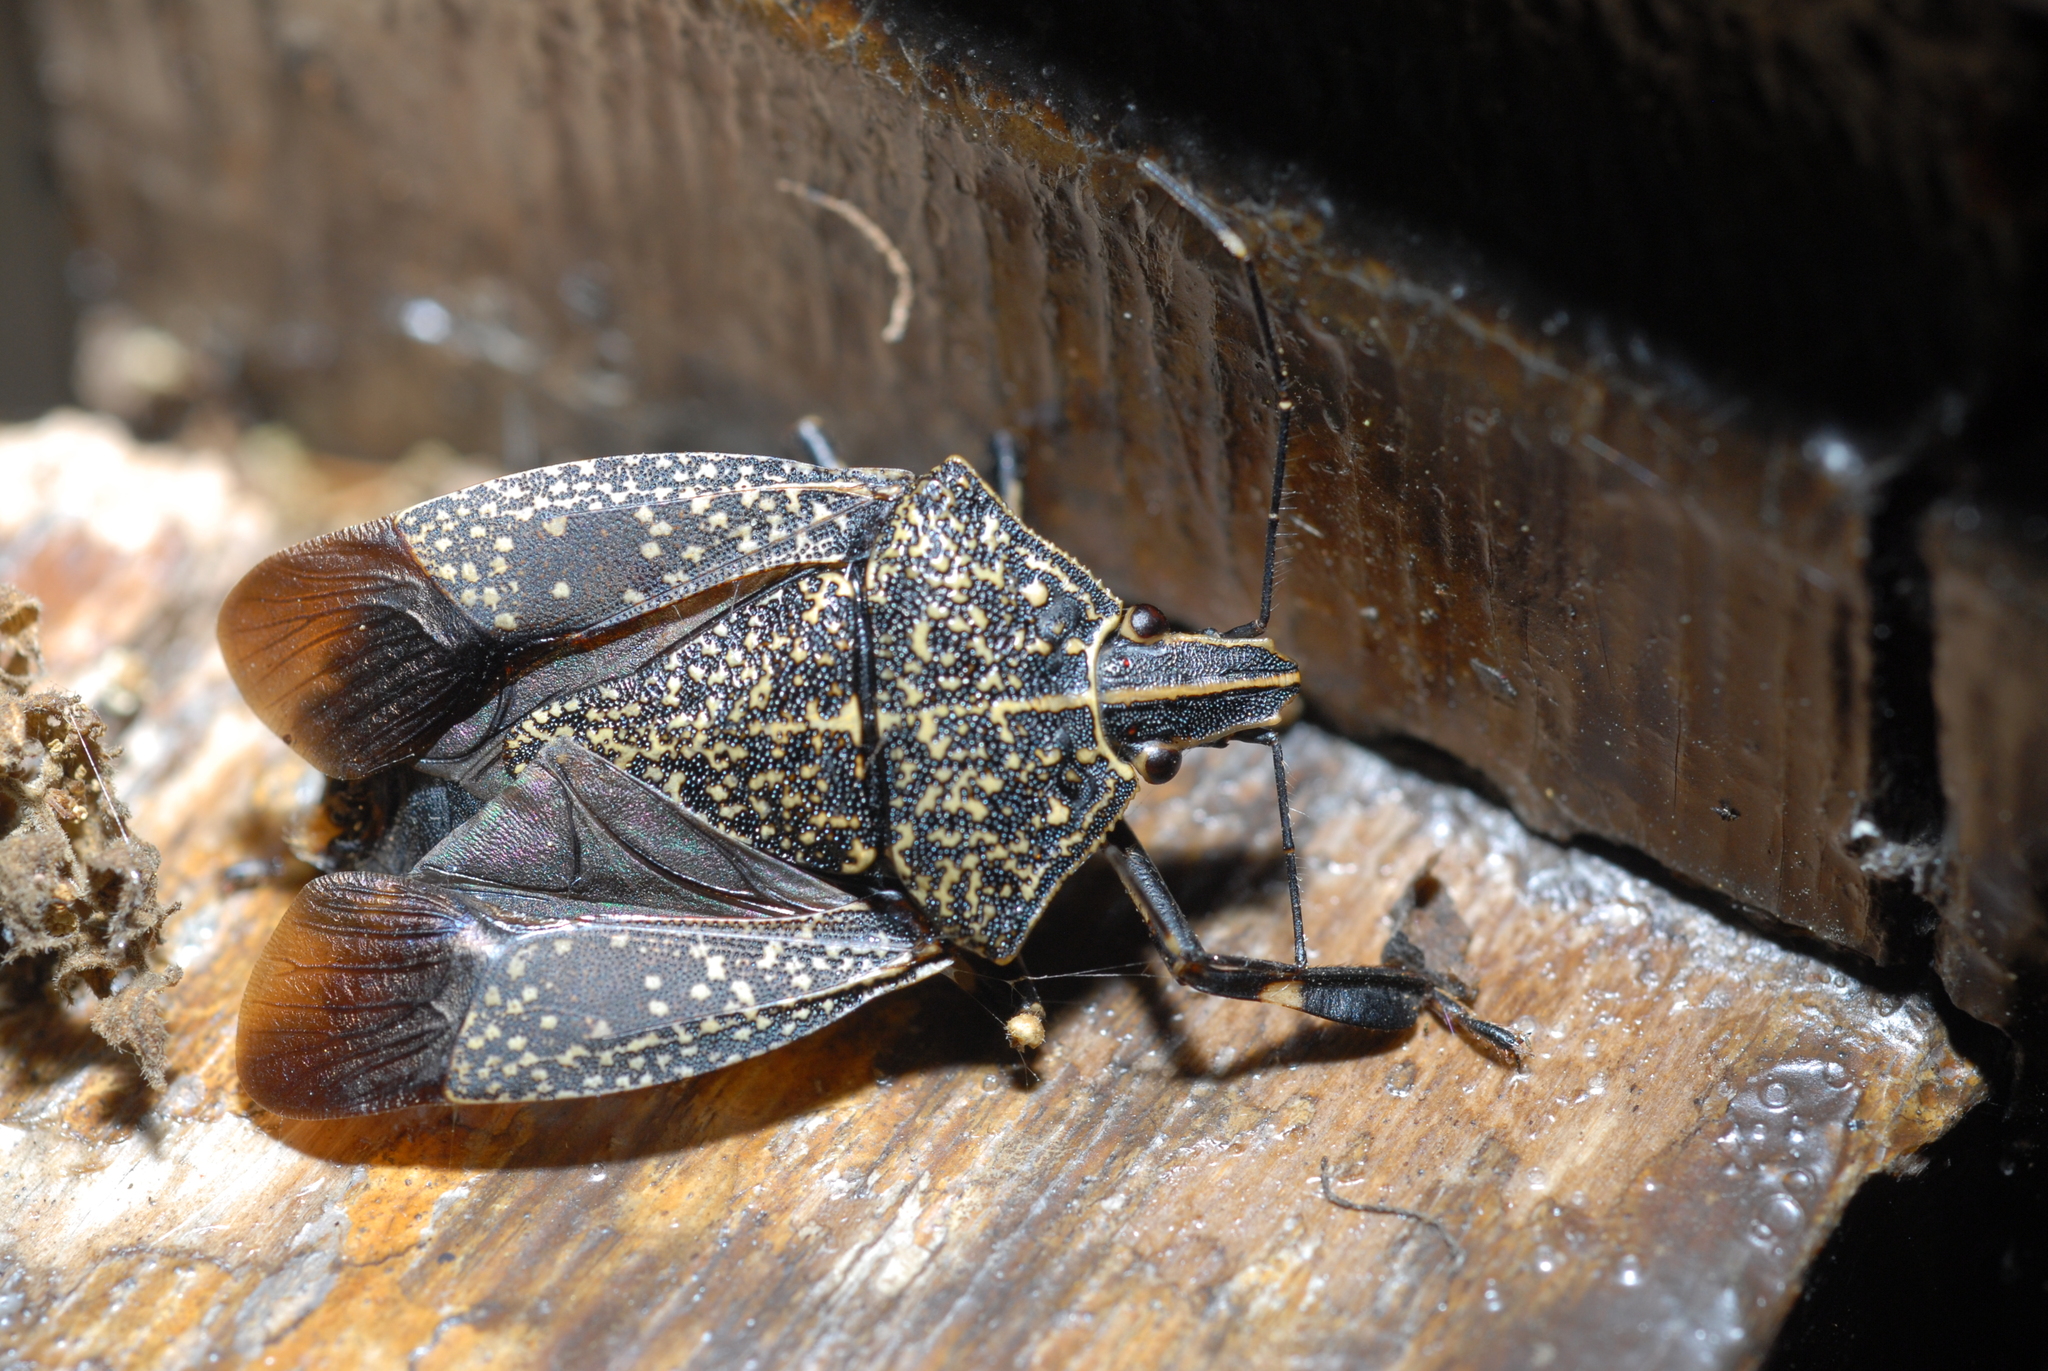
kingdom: Animalia
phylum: Arthropoda
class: Insecta
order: Hemiptera
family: Pentatomidae
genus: Erthesina
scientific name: Erthesina fullo
